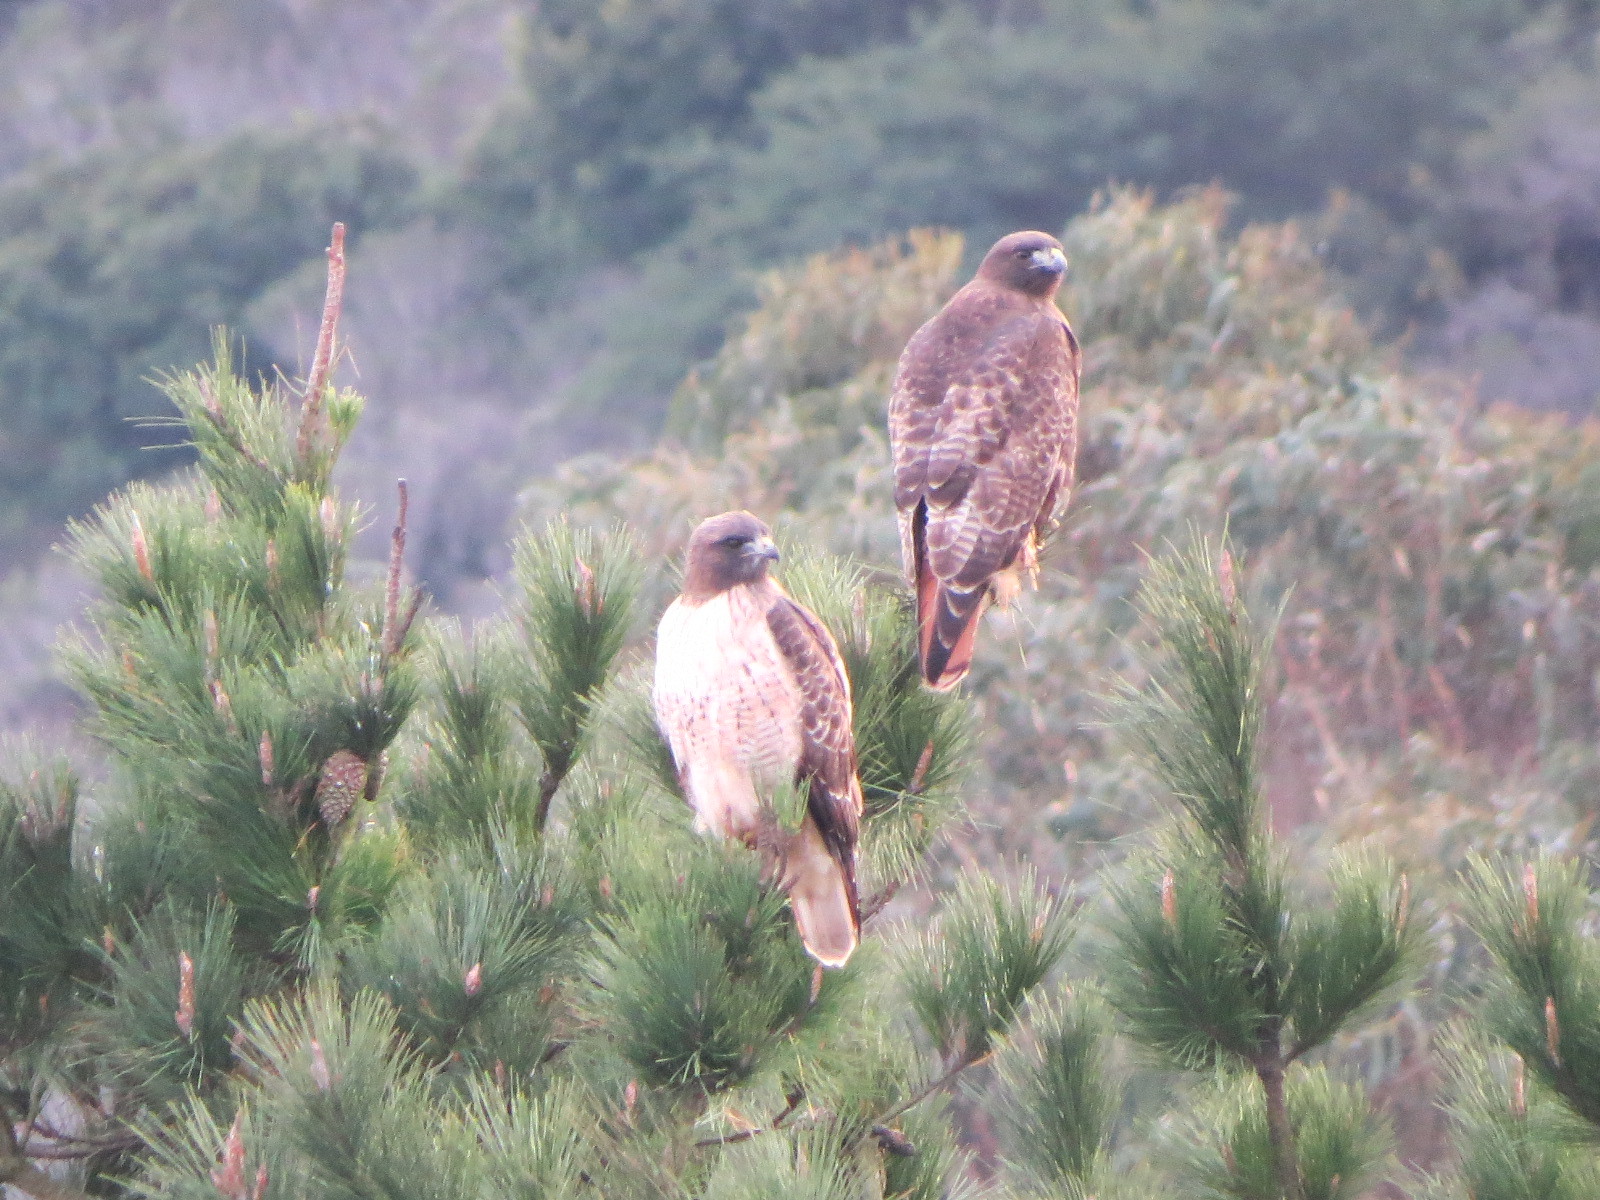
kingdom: Animalia
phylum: Chordata
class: Aves
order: Accipitriformes
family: Accipitridae
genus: Buteo
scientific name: Buteo jamaicensis
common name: Red-tailed hawk
